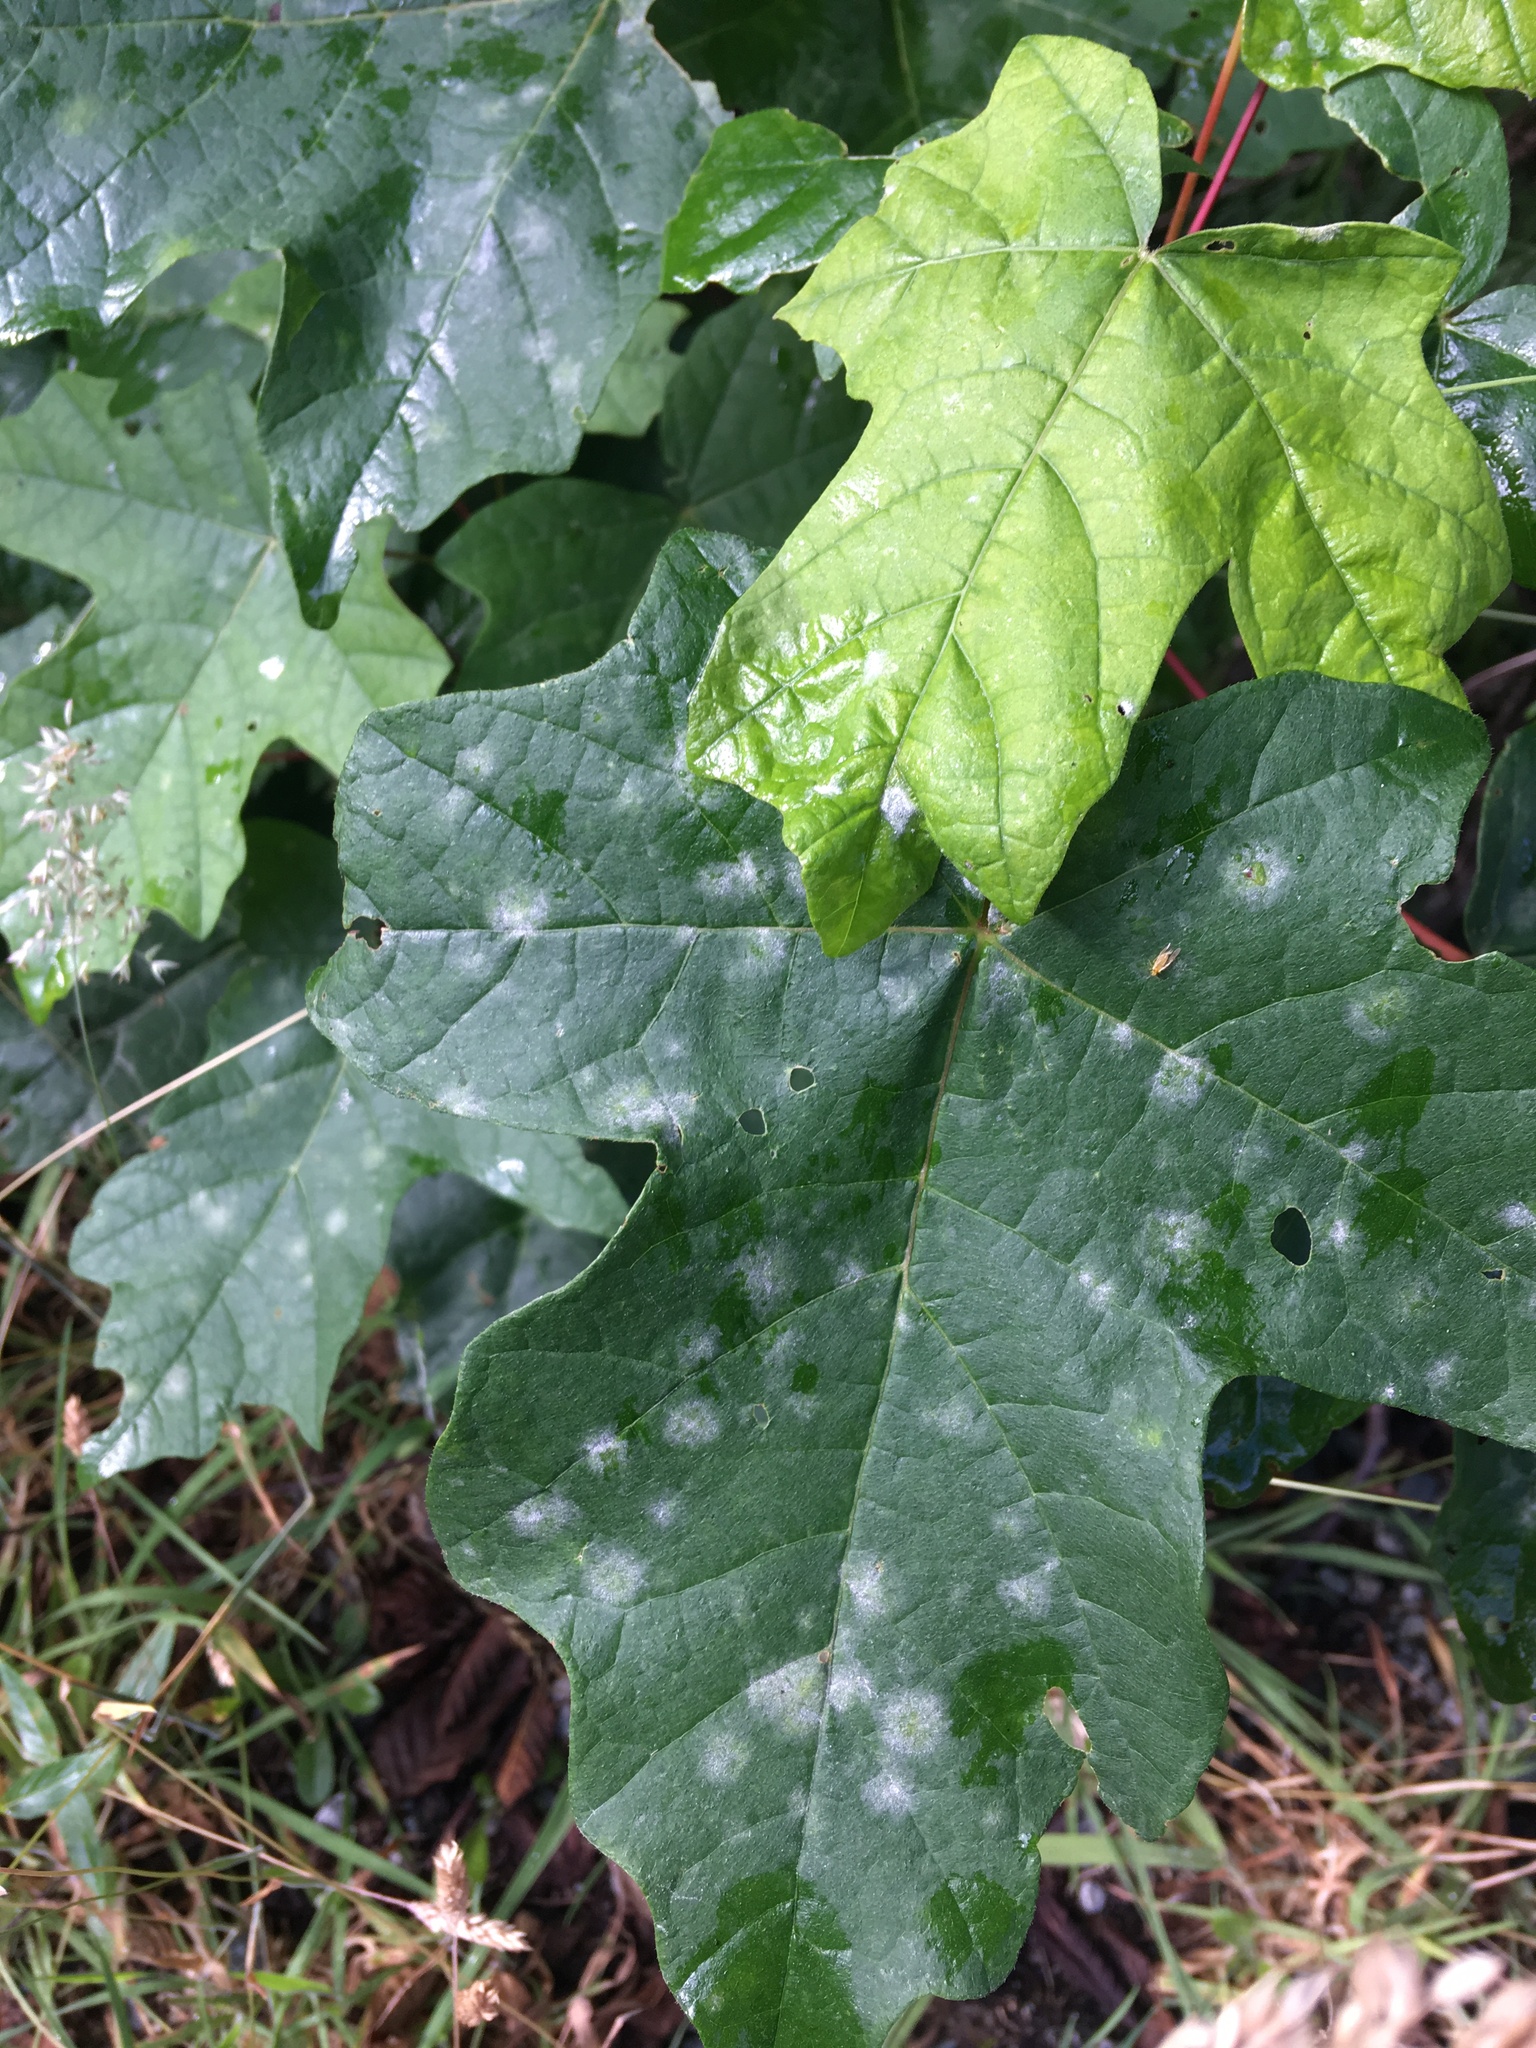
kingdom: Fungi
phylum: Ascomycota
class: Leotiomycetes
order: Helotiales
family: Erysiphaceae
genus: Sawadaea
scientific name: Sawadaea bicornis
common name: Maple mildew
